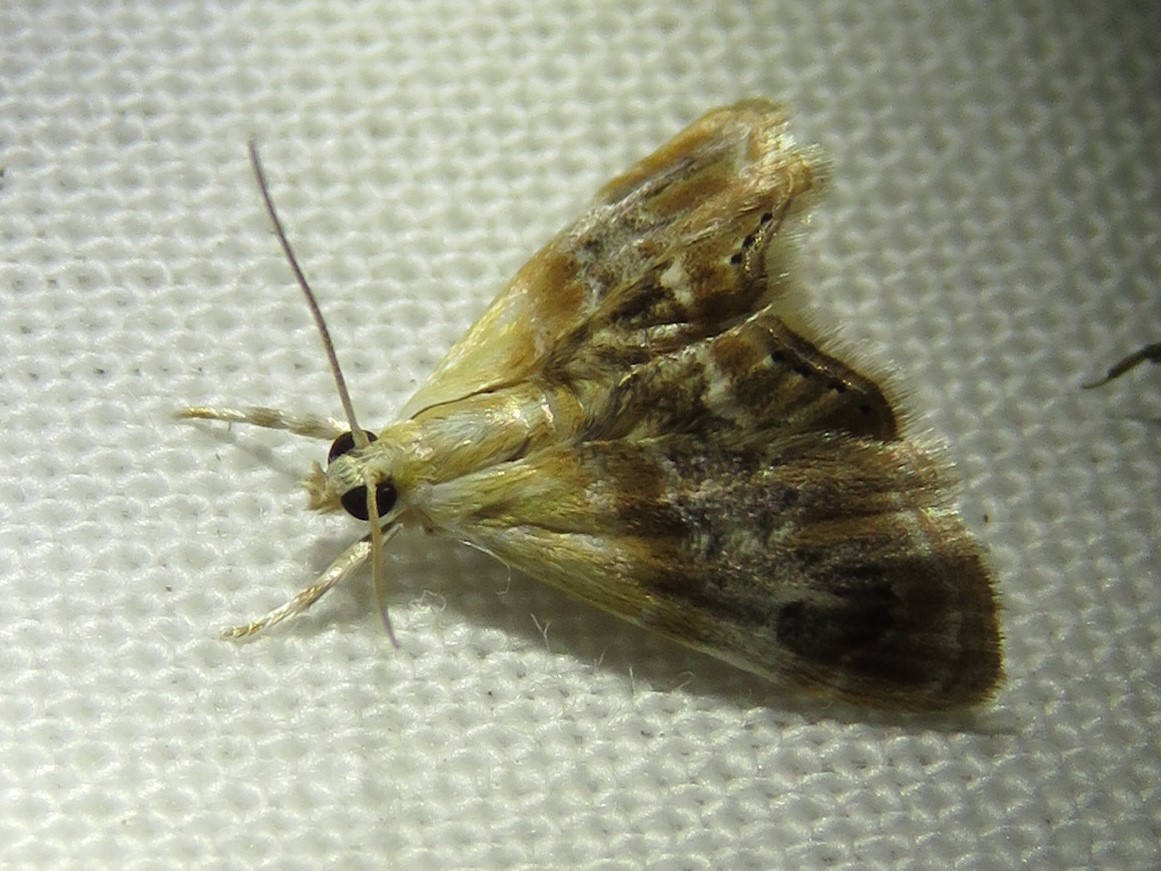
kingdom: Animalia
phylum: Arthropoda
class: Insecta
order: Lepidoptera
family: Crambidae
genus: Dicymolomia
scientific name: Dicymolomia julianalis
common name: Julia's dicymolomia moth
